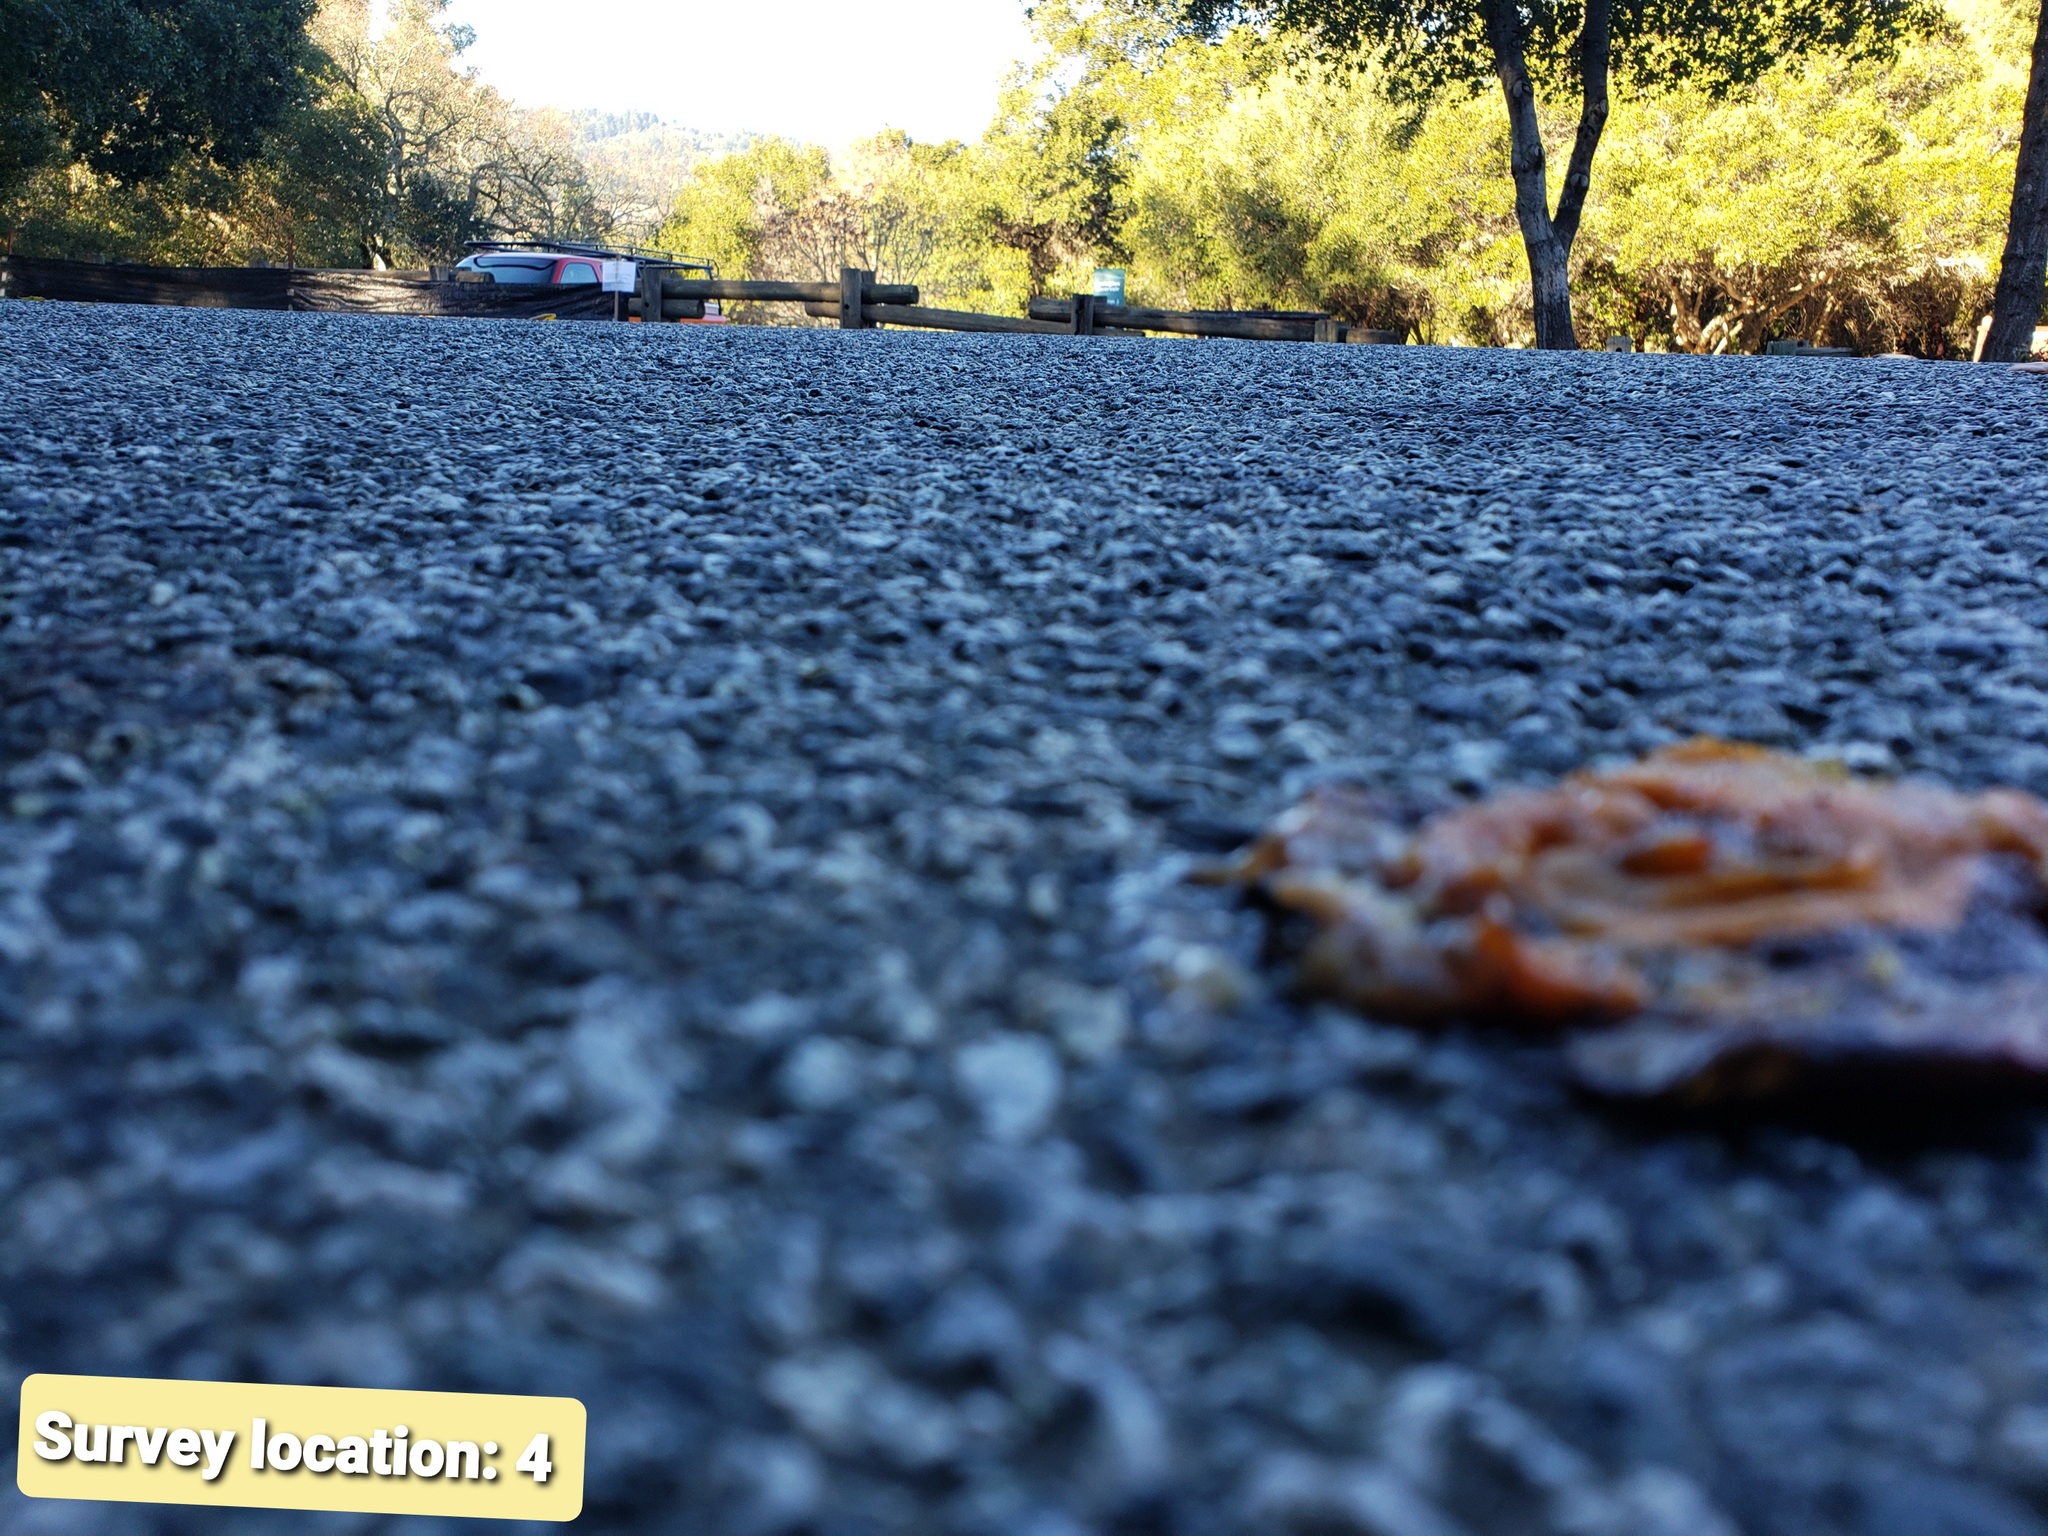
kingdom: Animalia
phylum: Chordata
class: Amphibia
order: Caudata
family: Salamandridae
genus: Taricha
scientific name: Taricha
